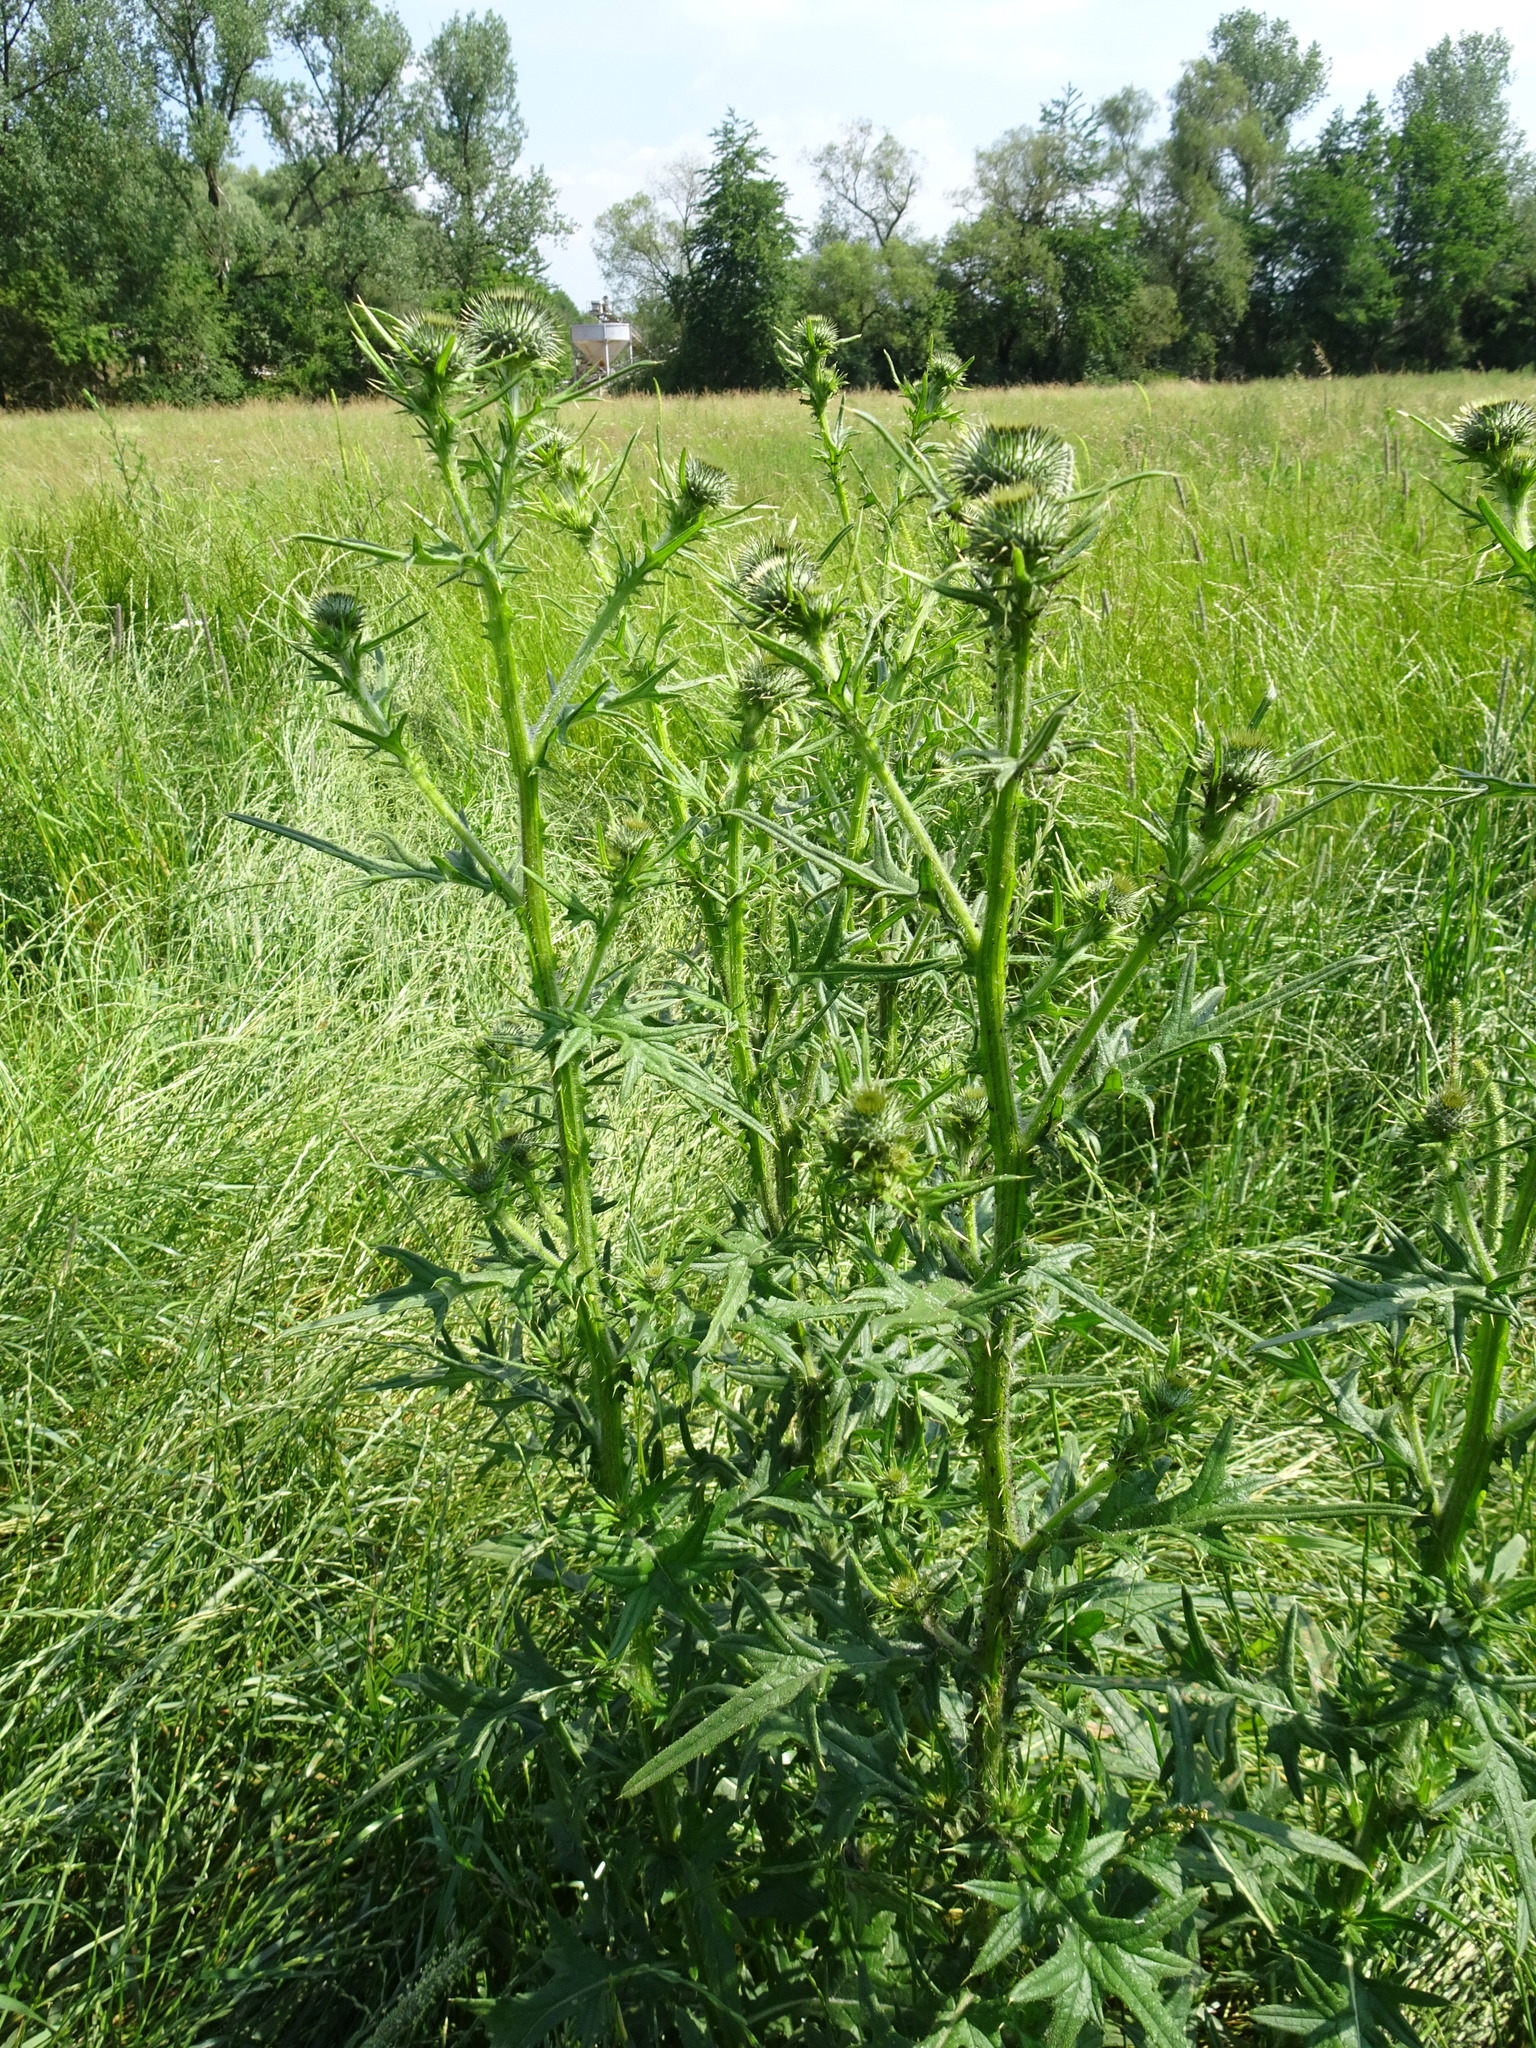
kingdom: Plantae
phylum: Tracheophyta
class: Magnoliopsida
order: Asterales
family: Asteraceae
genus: Cirsium
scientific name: Cirsium vulgare
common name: Bull thistle
